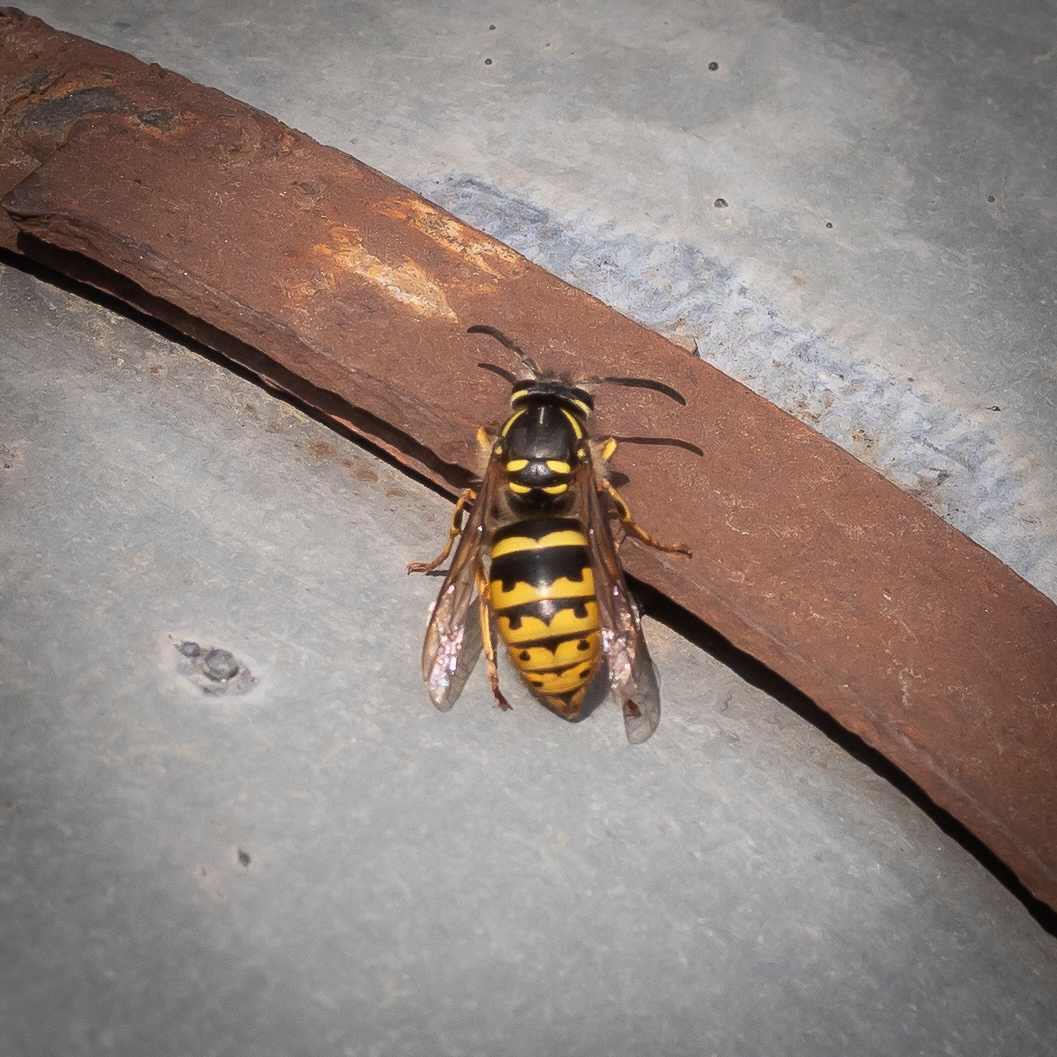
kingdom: Animalia
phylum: Arthropoda
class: Insecta
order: Hymenoptera
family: Vespidae
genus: Vespula
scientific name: Vespula vulgaris
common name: Common wasp
